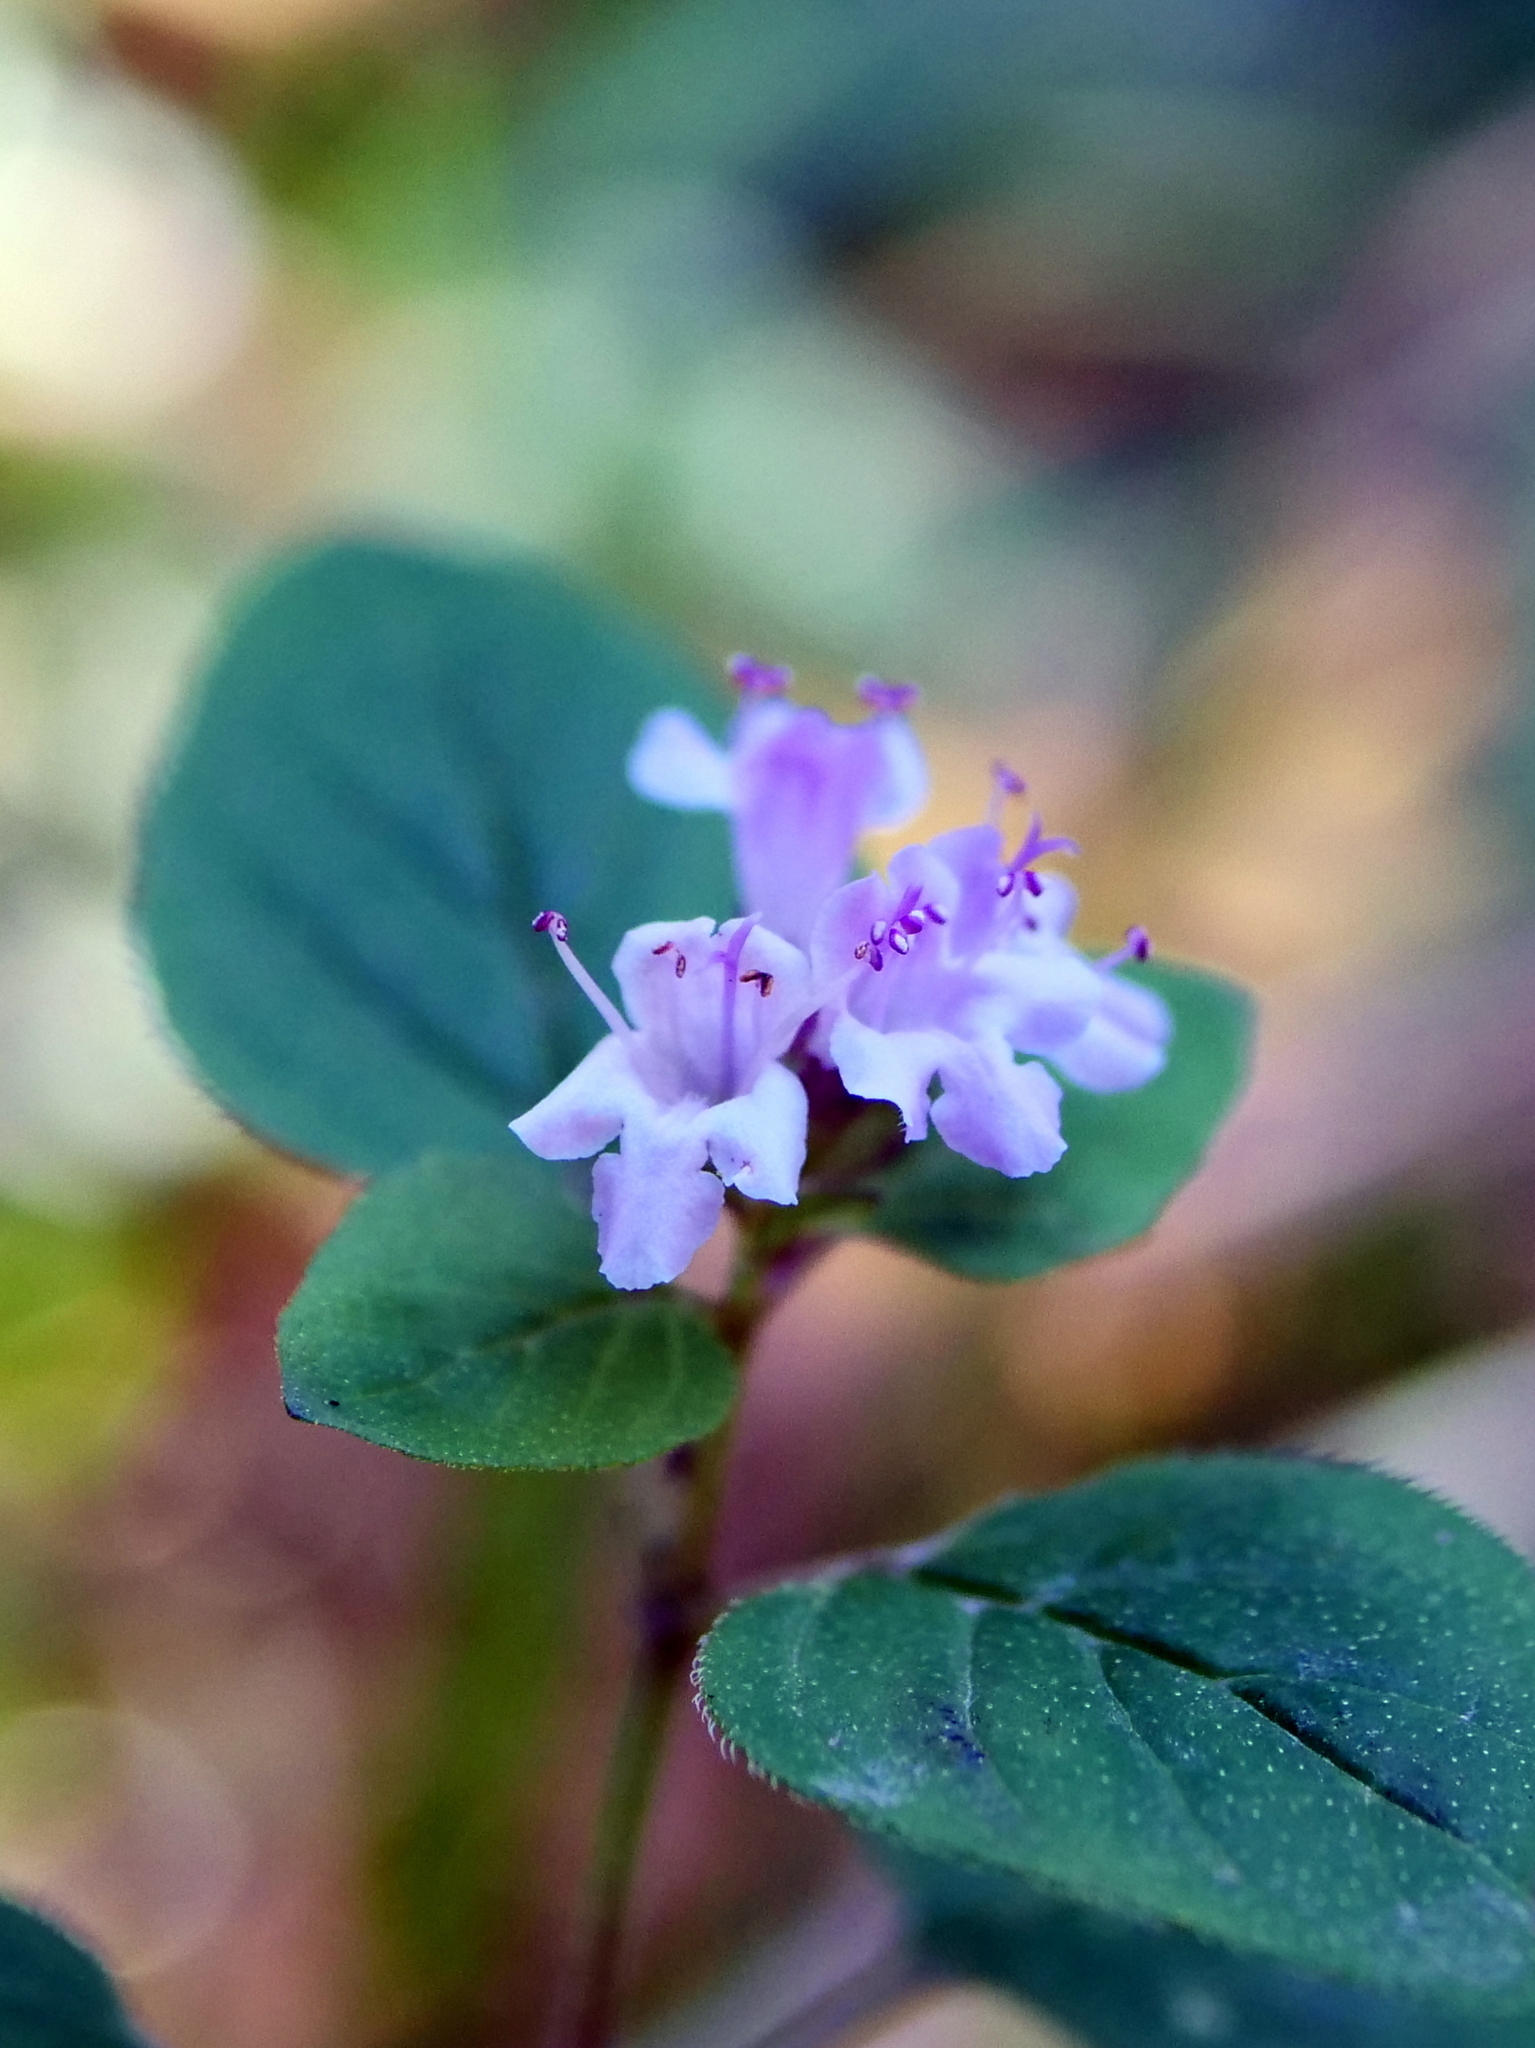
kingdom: Plantae
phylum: Tracheophyta
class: Magnoliopsida
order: Lamiales
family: Lamiaceae
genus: Origanum
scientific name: Origanum vulgare
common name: Wild marjoram
